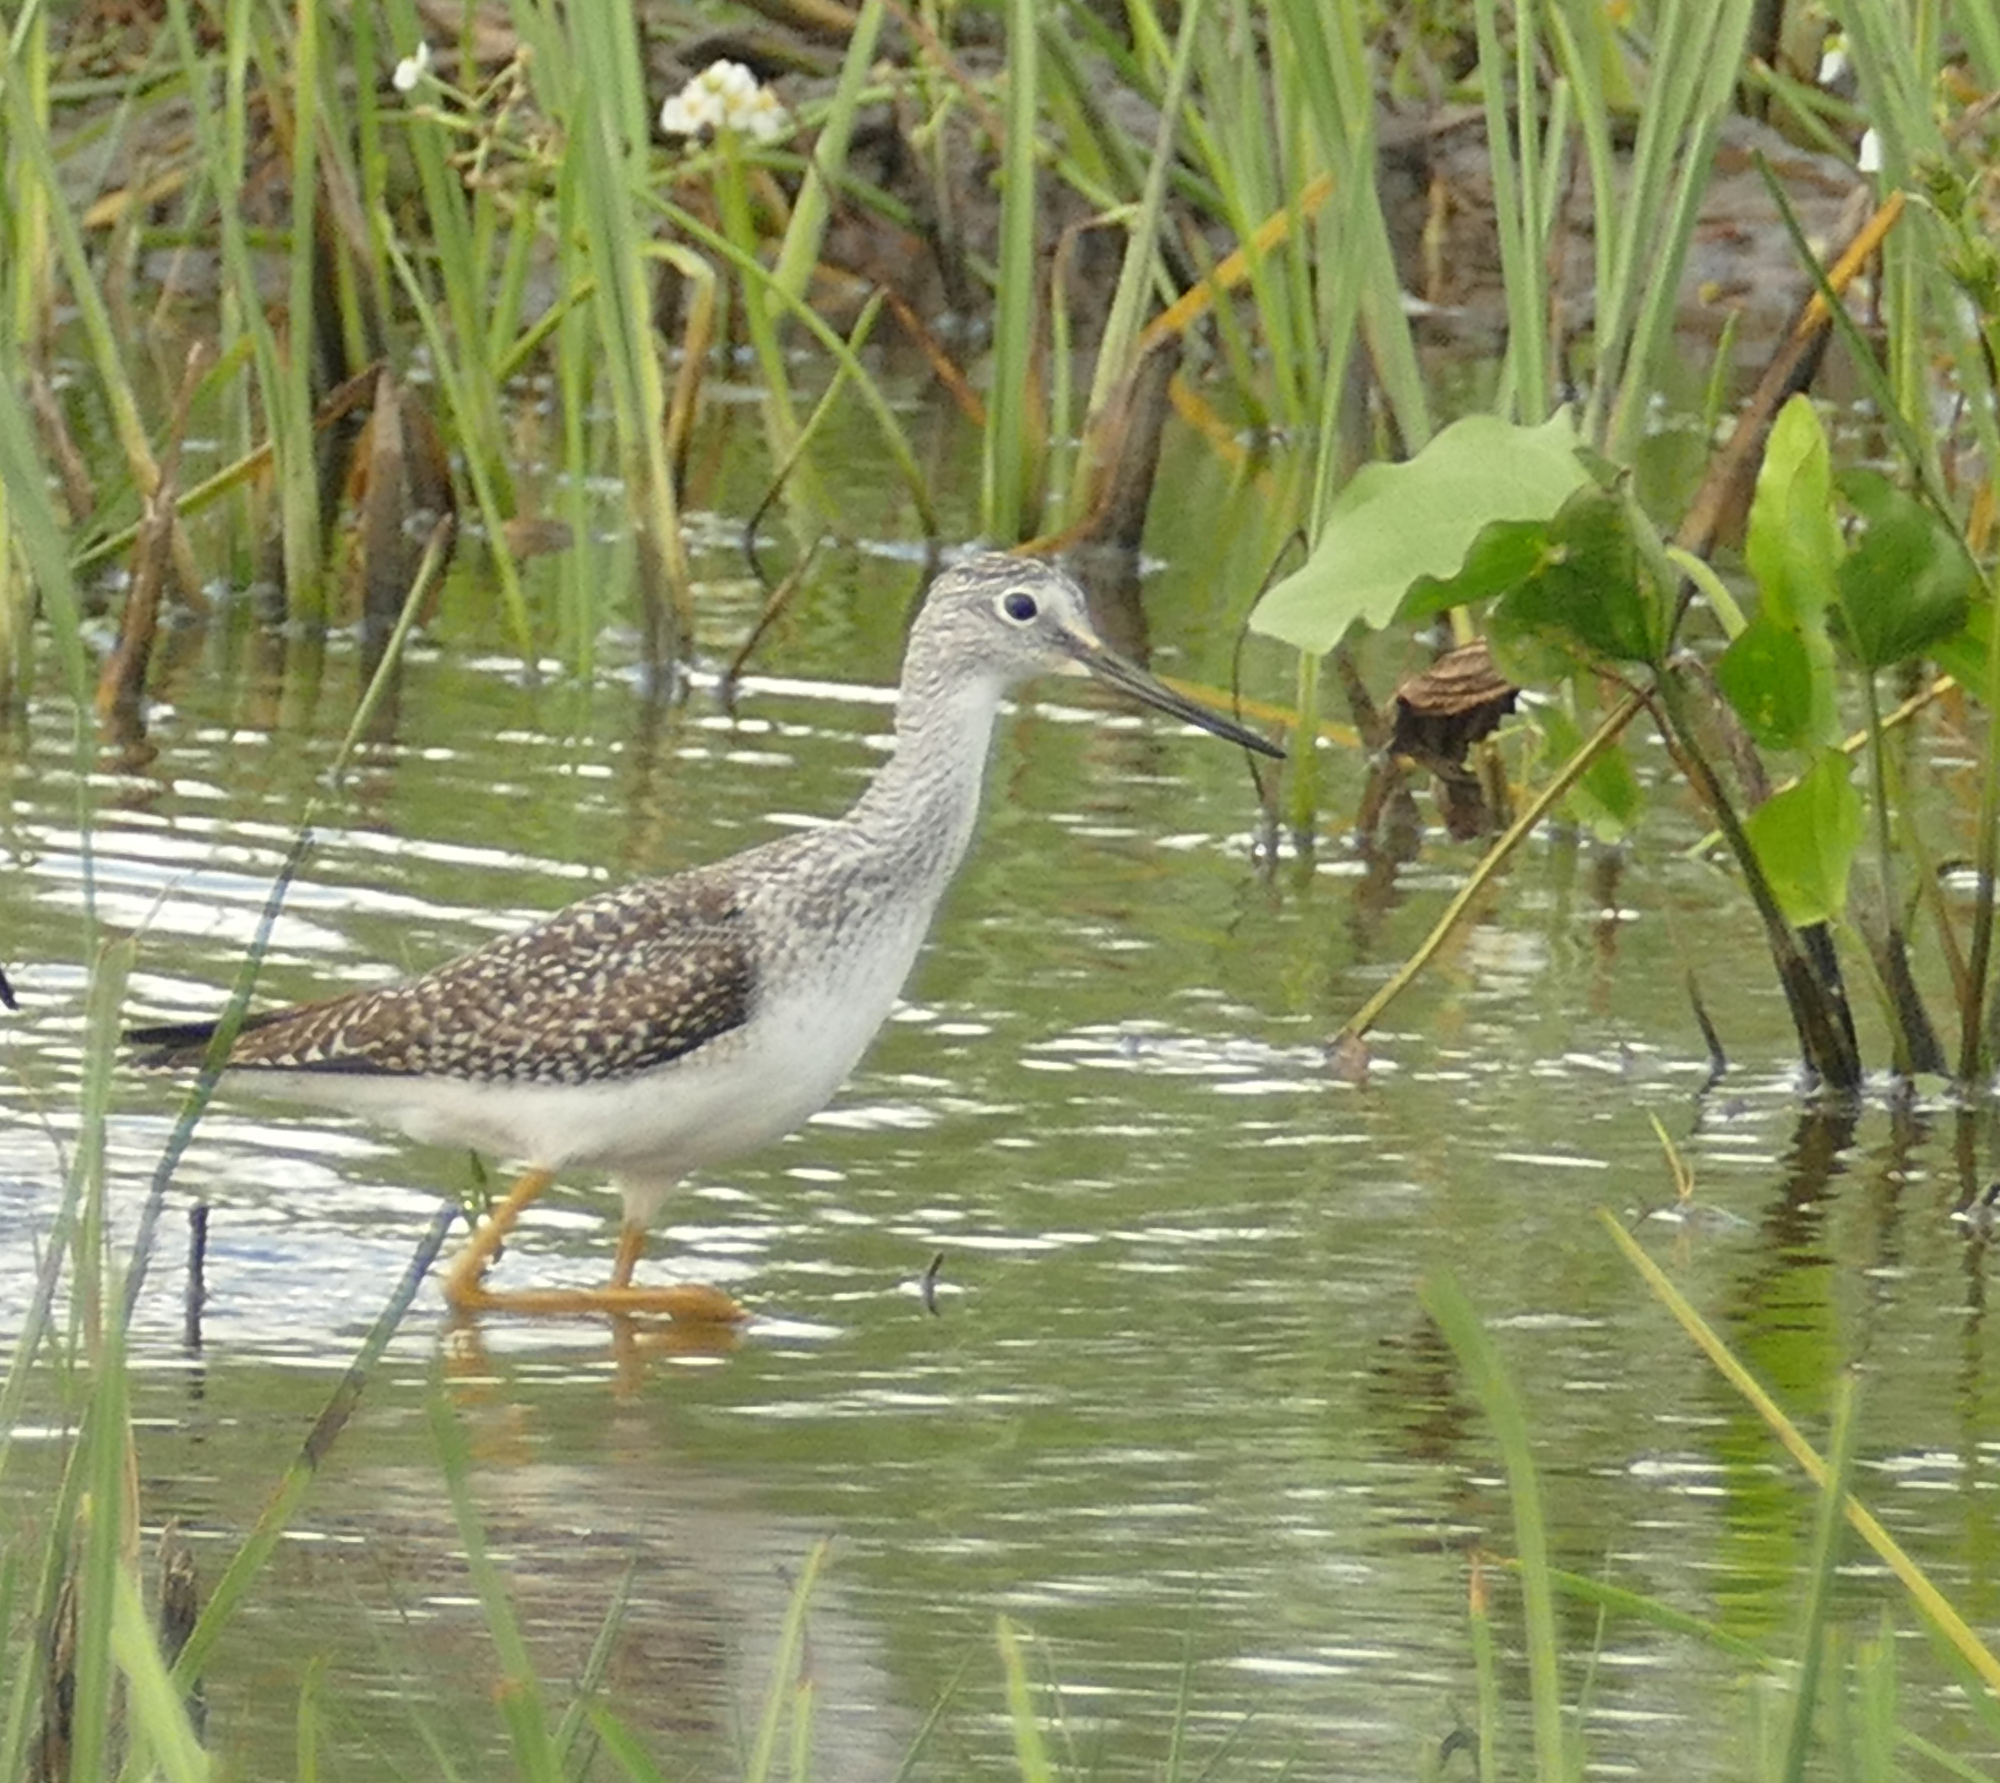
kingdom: Animalia
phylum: Chordata
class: Aves
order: Charadriiformes
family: Scolopacidae
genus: Tringa
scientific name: Tringa melanoleuca
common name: Greater yellowlegs
